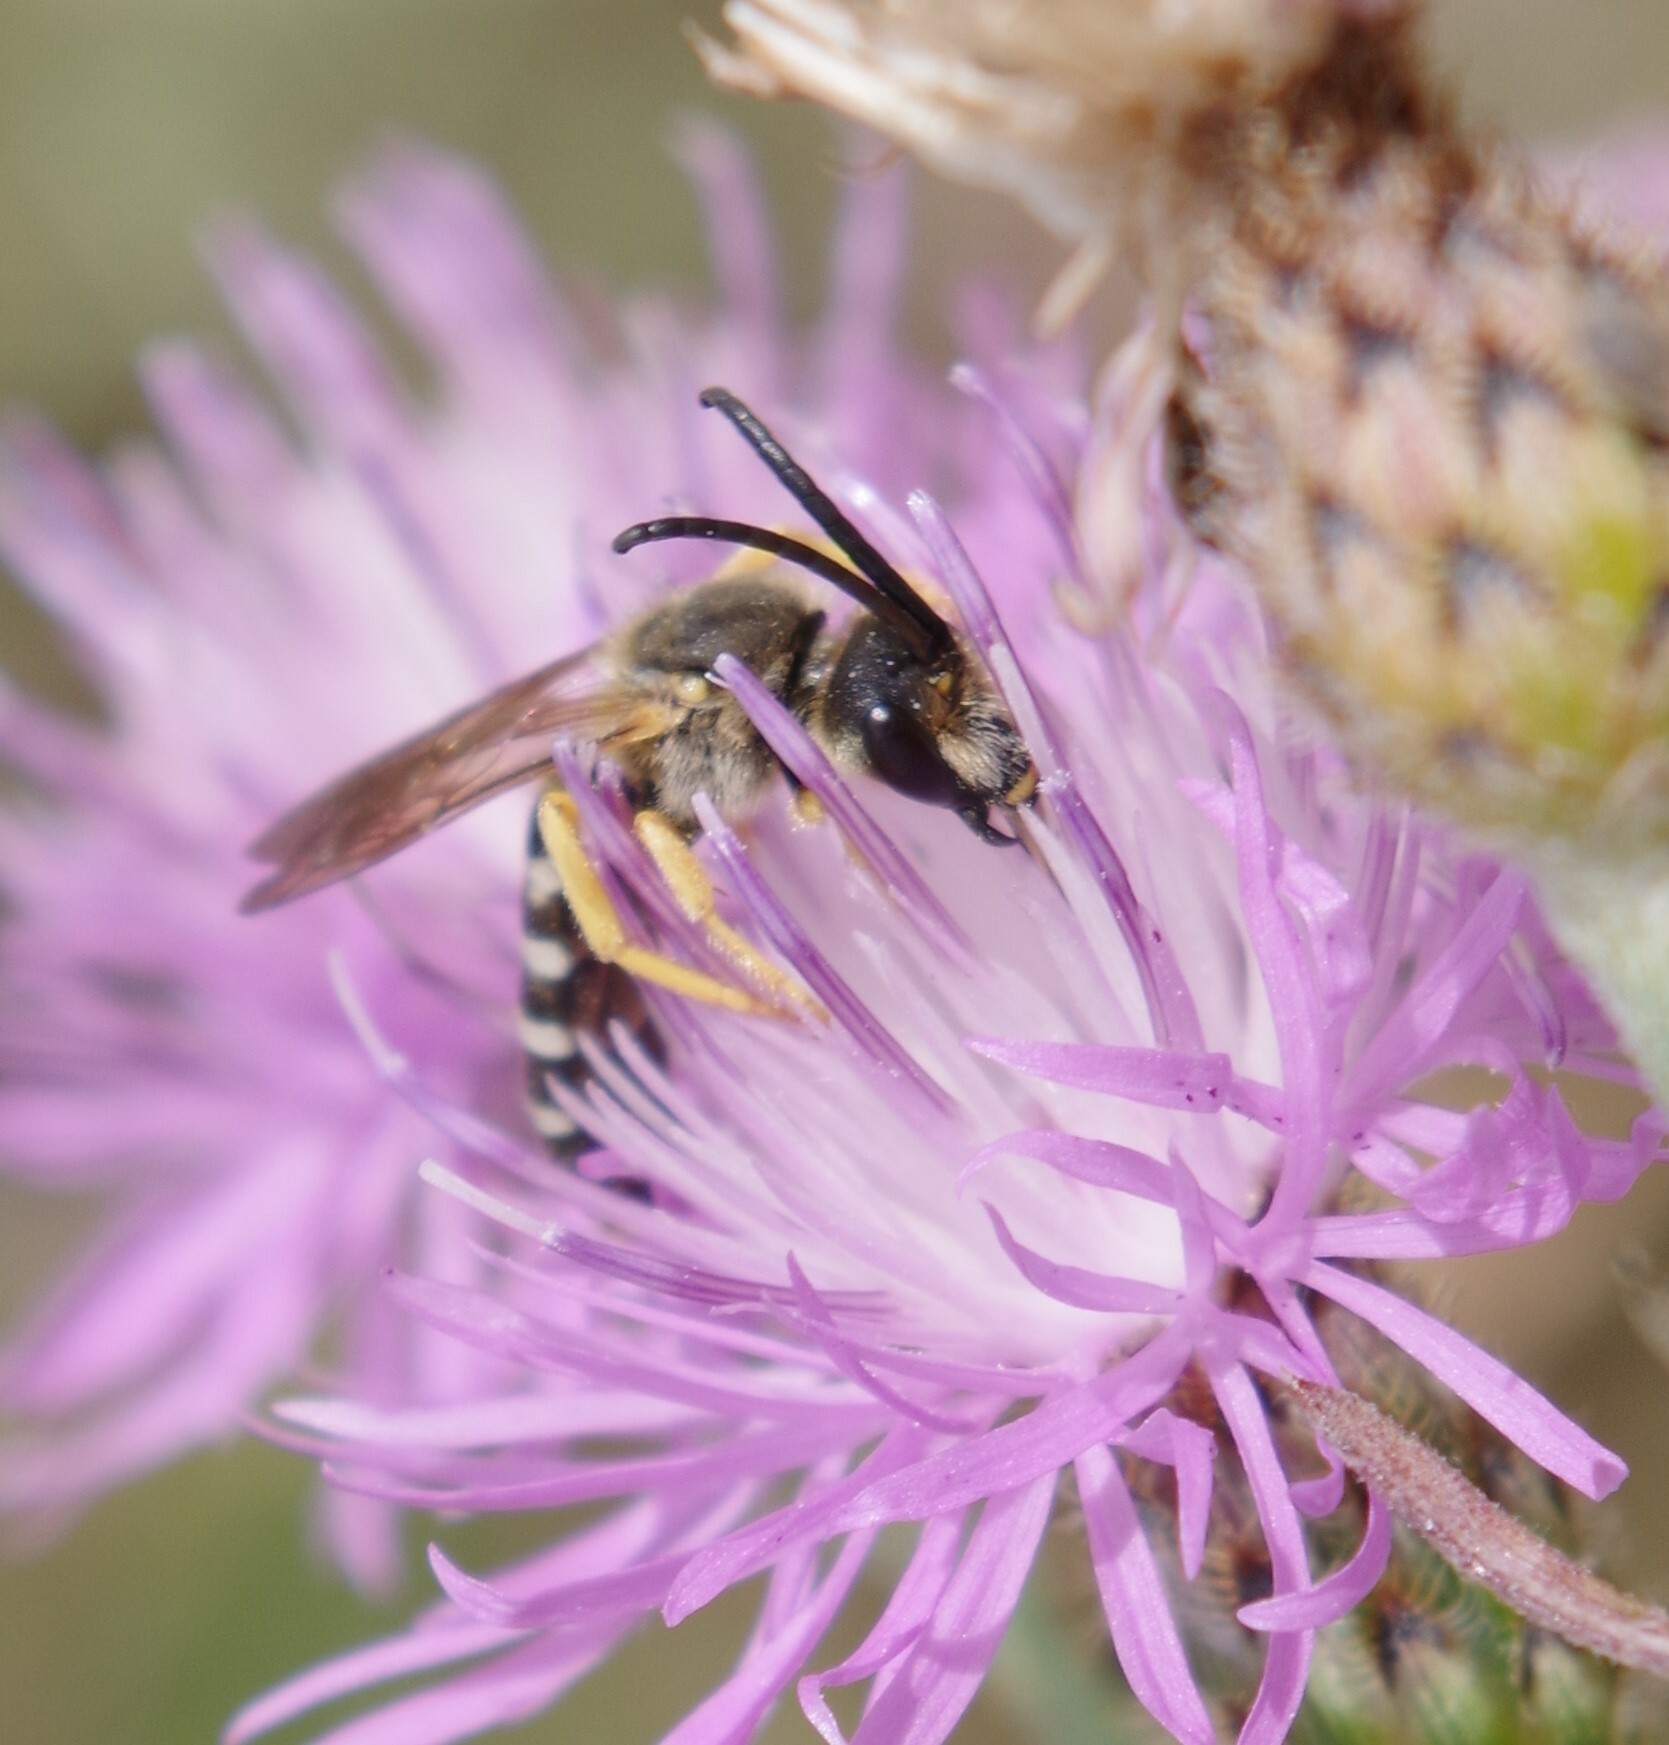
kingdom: Animalia
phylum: Arthropoda
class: Insecta
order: Hymenoptera
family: Halictidae
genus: Halictus
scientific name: Halictus scabiosae
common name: Great banded furrow bee
